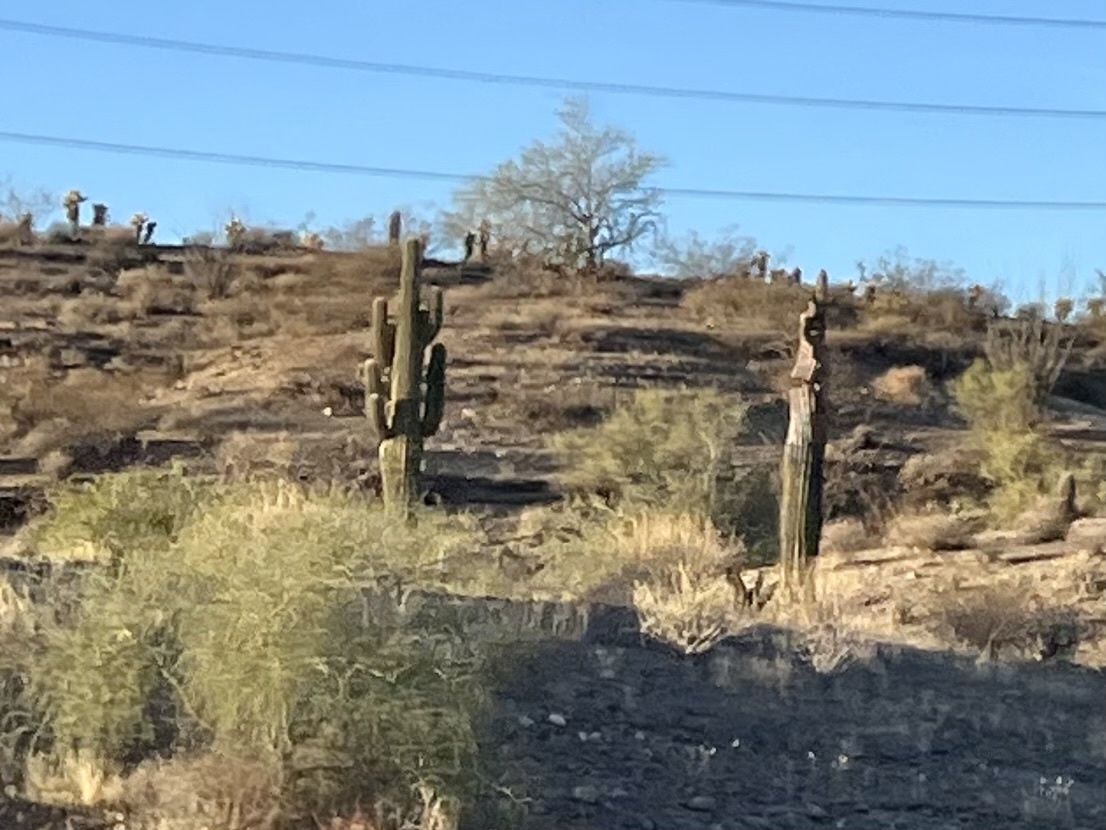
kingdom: Plantae
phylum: Tracheophyta
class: Magnoliopsida
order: Caryophyllales
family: Cactaceae
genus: Carnegiea
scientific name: Carnegiea gigantea
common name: Saguaro
